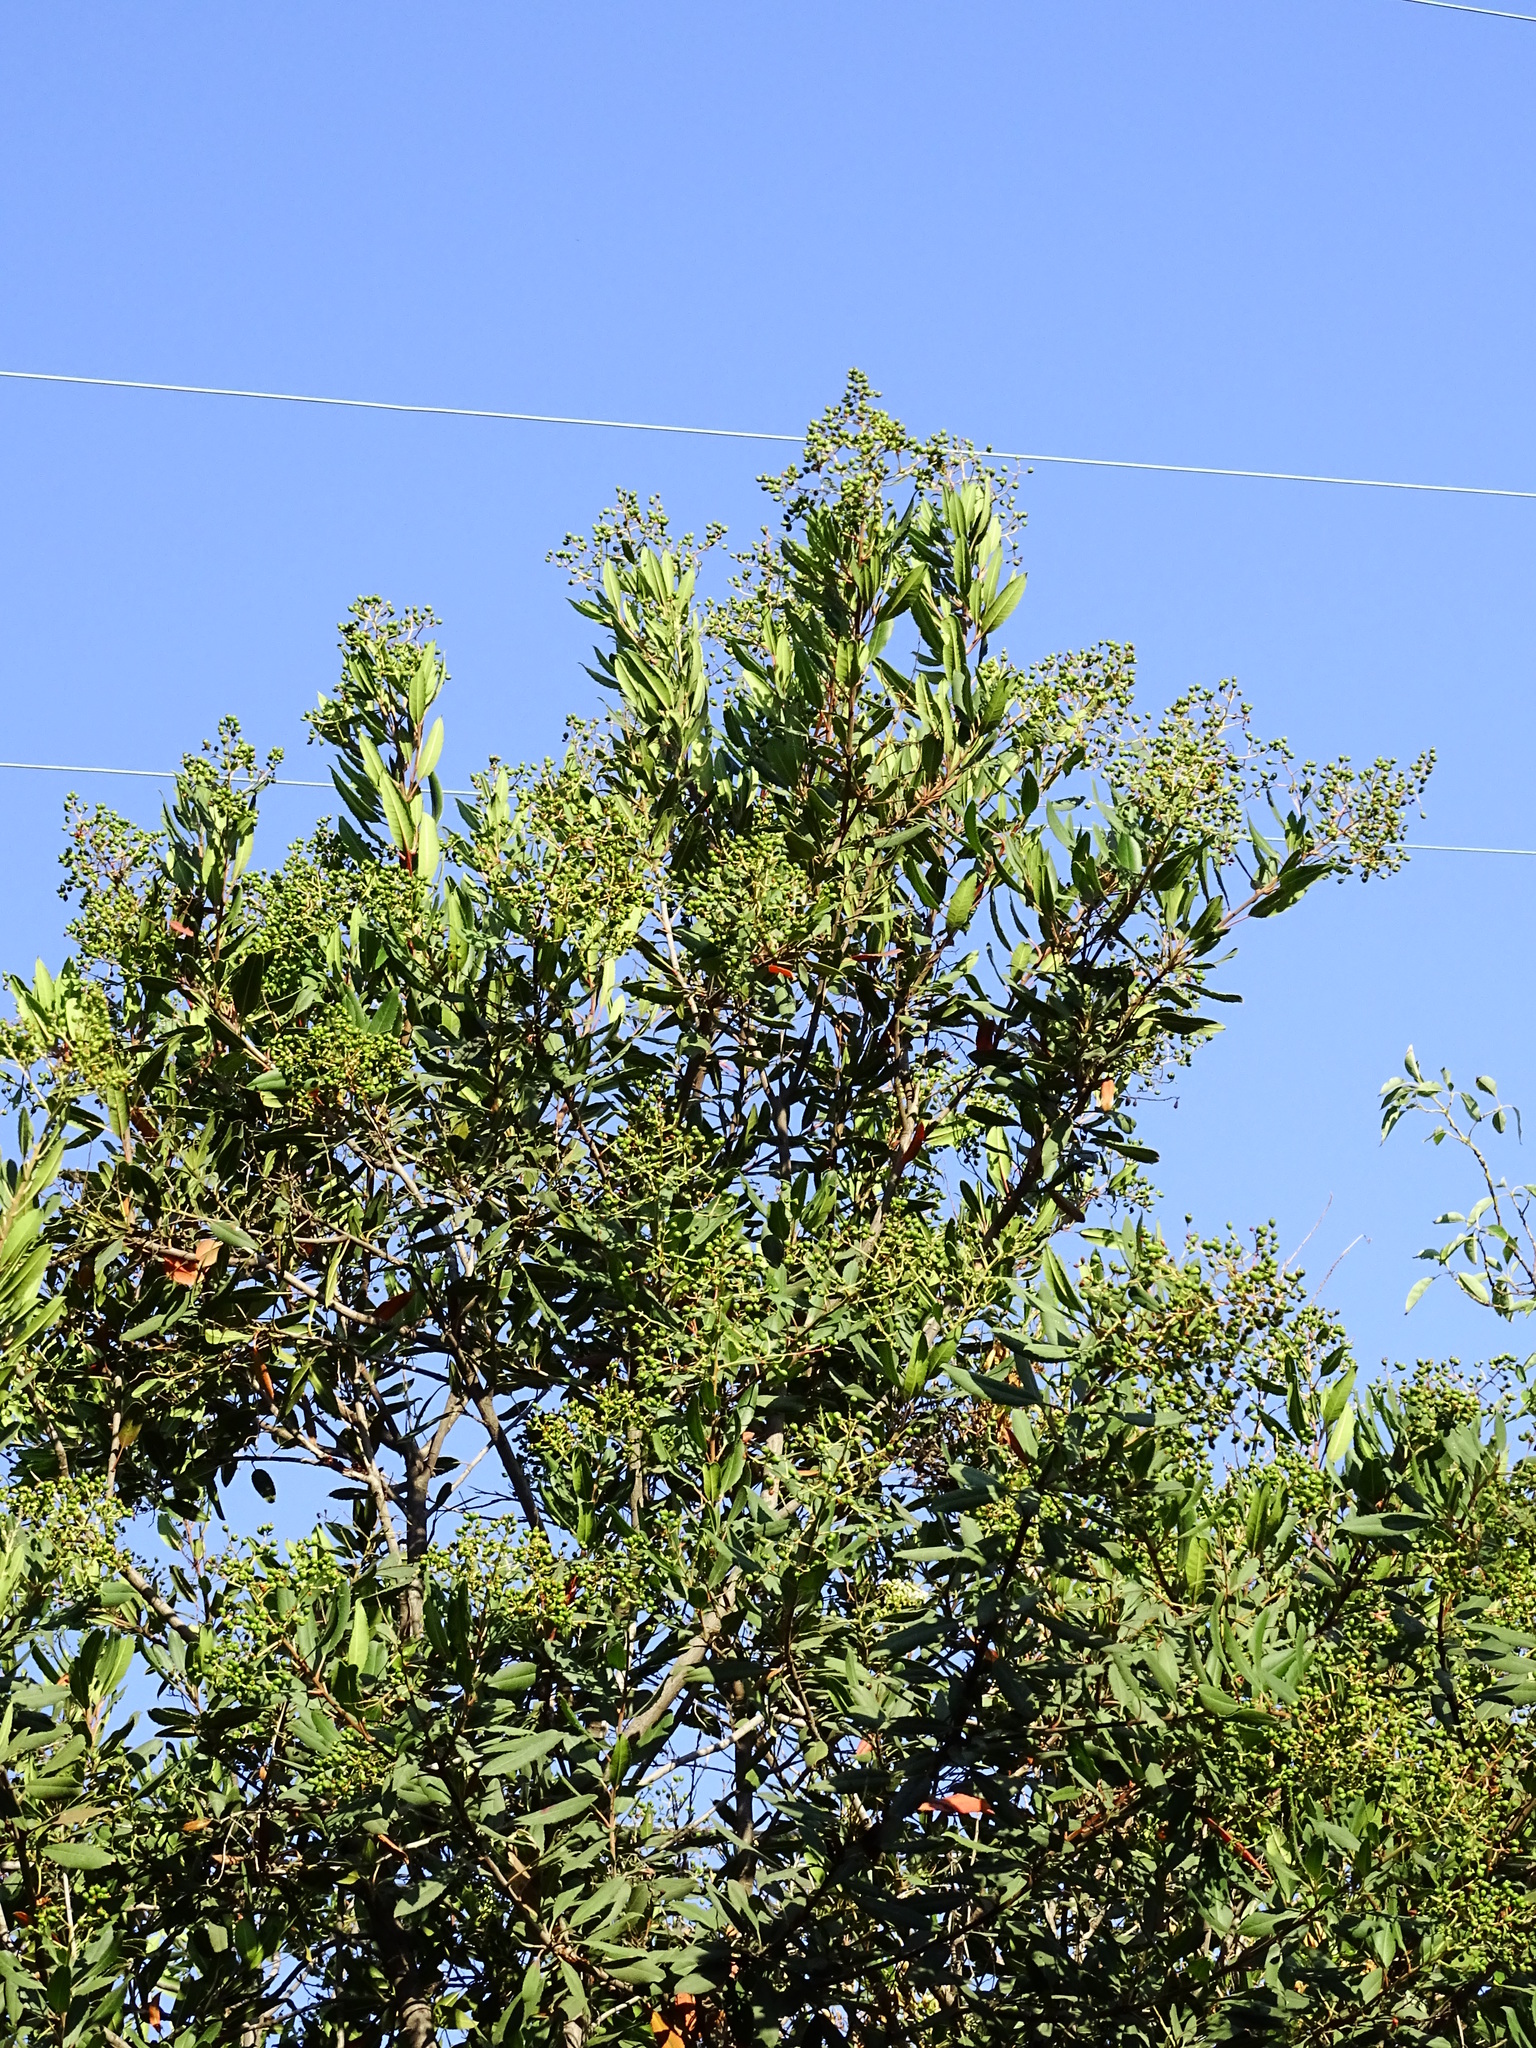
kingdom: Plantae
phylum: Tracheophyta
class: Magnoliopsida
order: Rosales
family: Rosaceae
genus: Heteromeles
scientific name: Heteromeles arbutifolia
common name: California-holly
